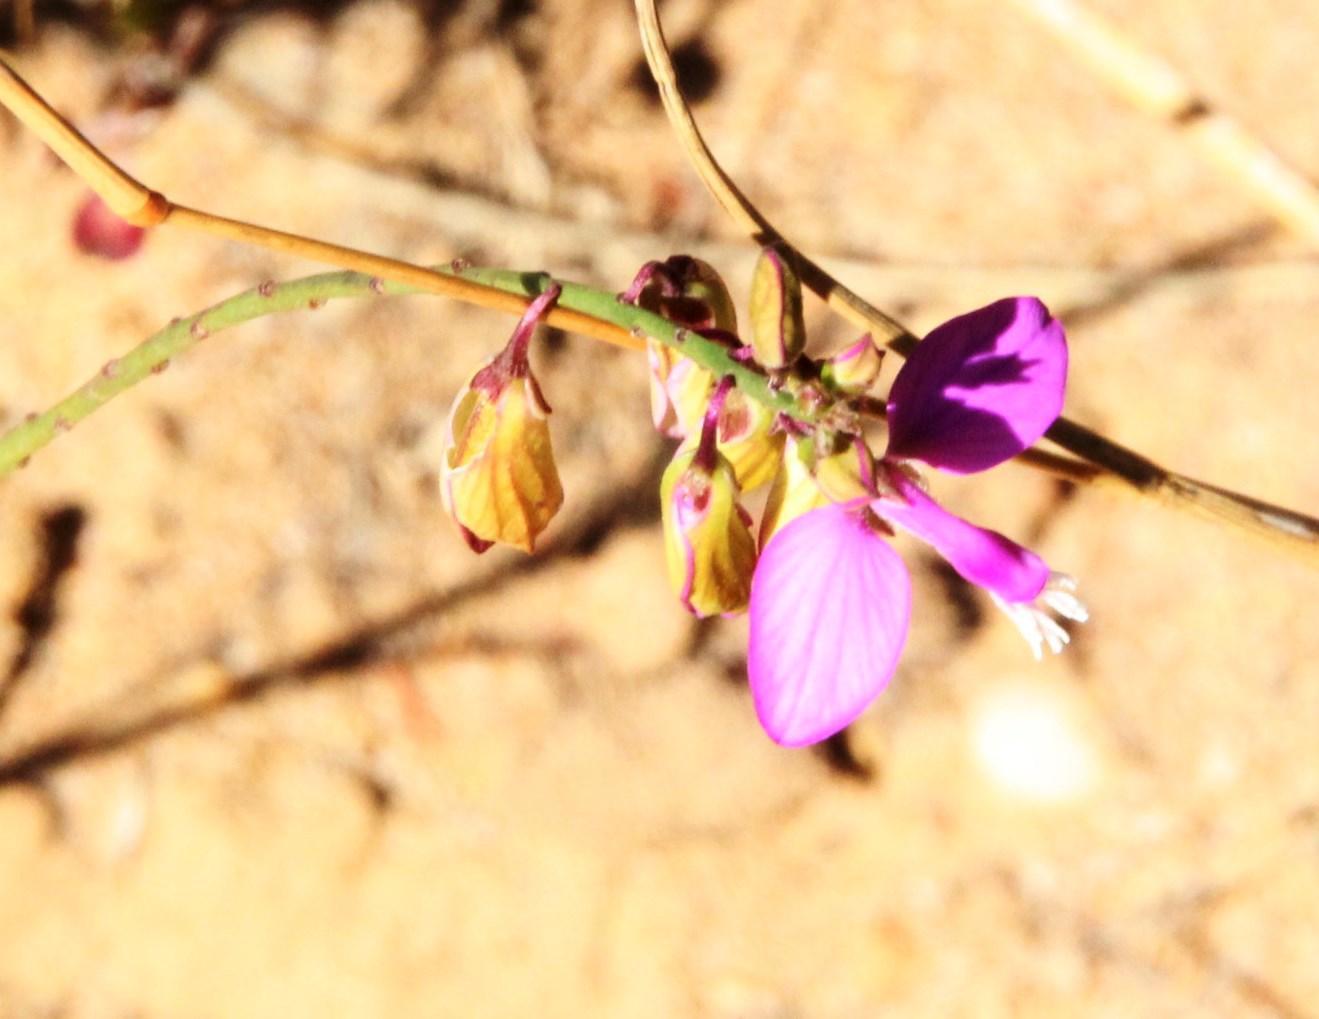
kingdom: Plantae
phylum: Tracheophyta
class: Magnoliopsida
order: Fabales
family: Polygalaceae
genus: Polygala
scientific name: Polygala garcini
